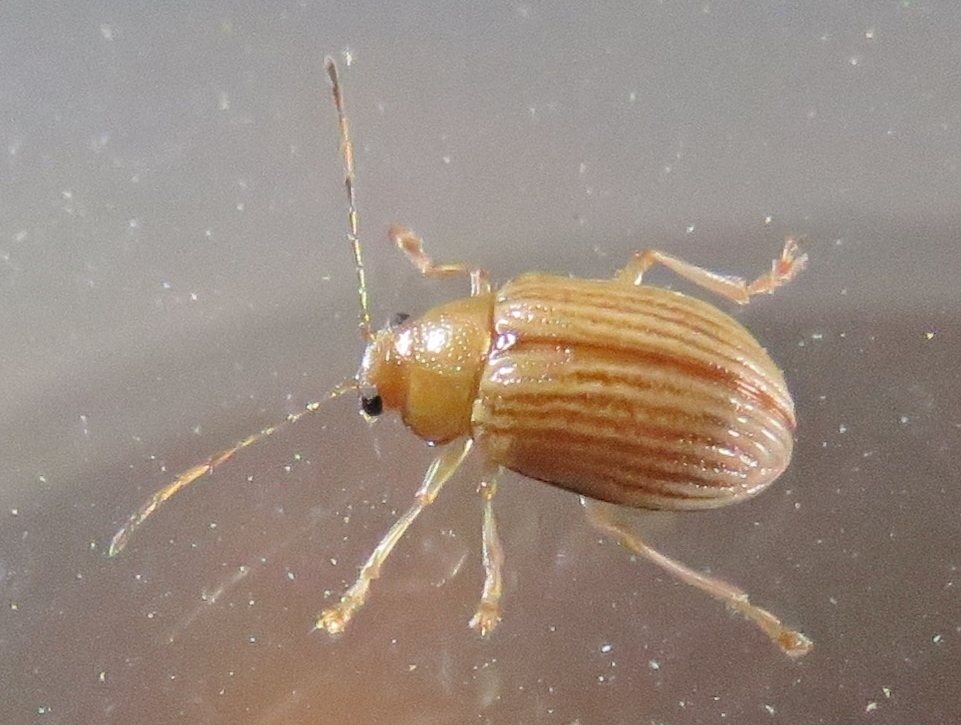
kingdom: Animalia
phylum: Arthropoda
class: Insecta
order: Coleoptera
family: Chrysomelidae
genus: Colaspis
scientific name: Colaspis brunnea
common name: Grape colaspis
